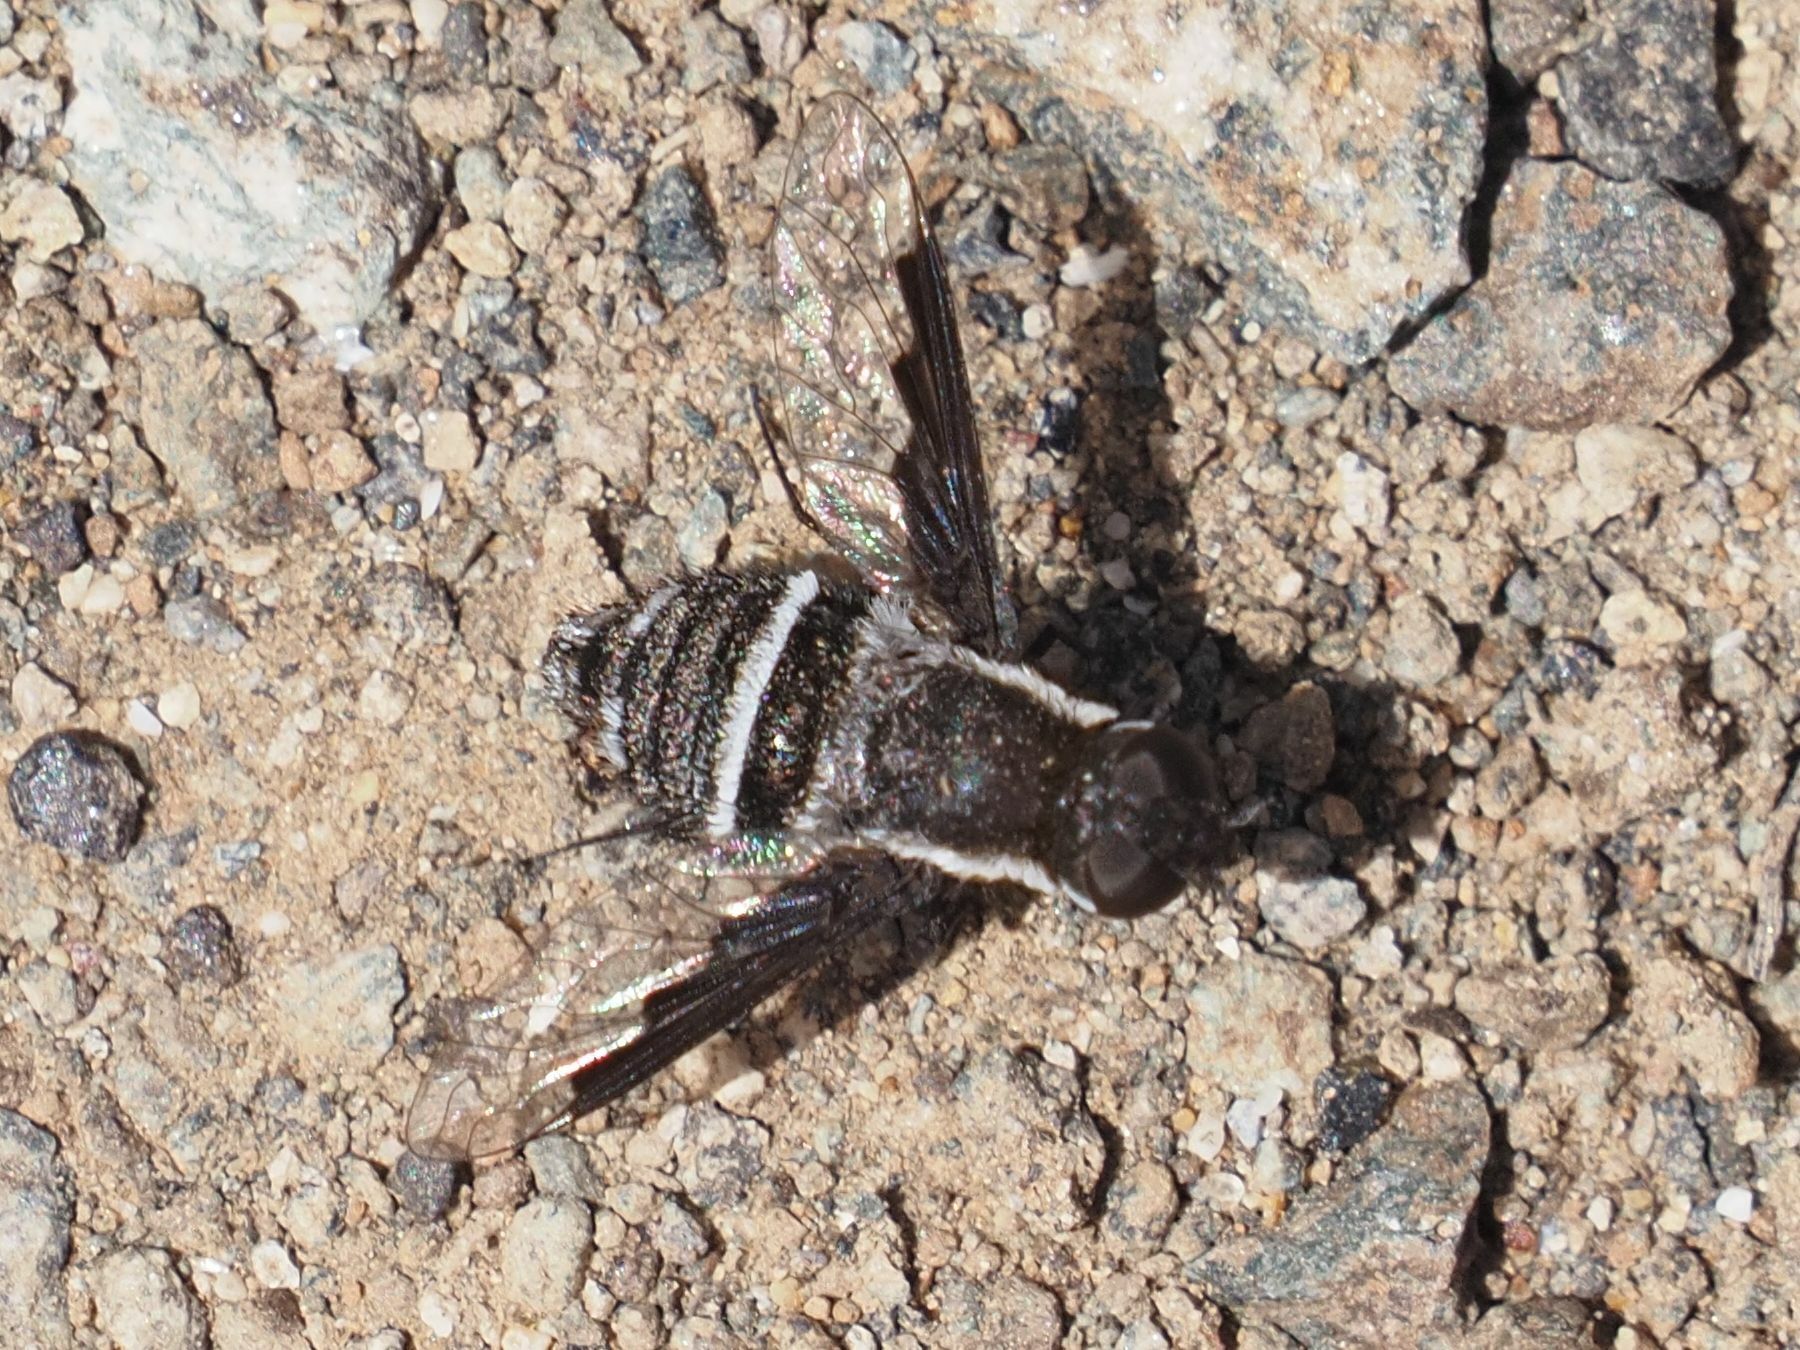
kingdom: Animalia
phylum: Arthropoda
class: Insecta
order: Diptera
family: Bombyliidae
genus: Exhyalanthrax
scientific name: Exhyalanthrax canarionae
